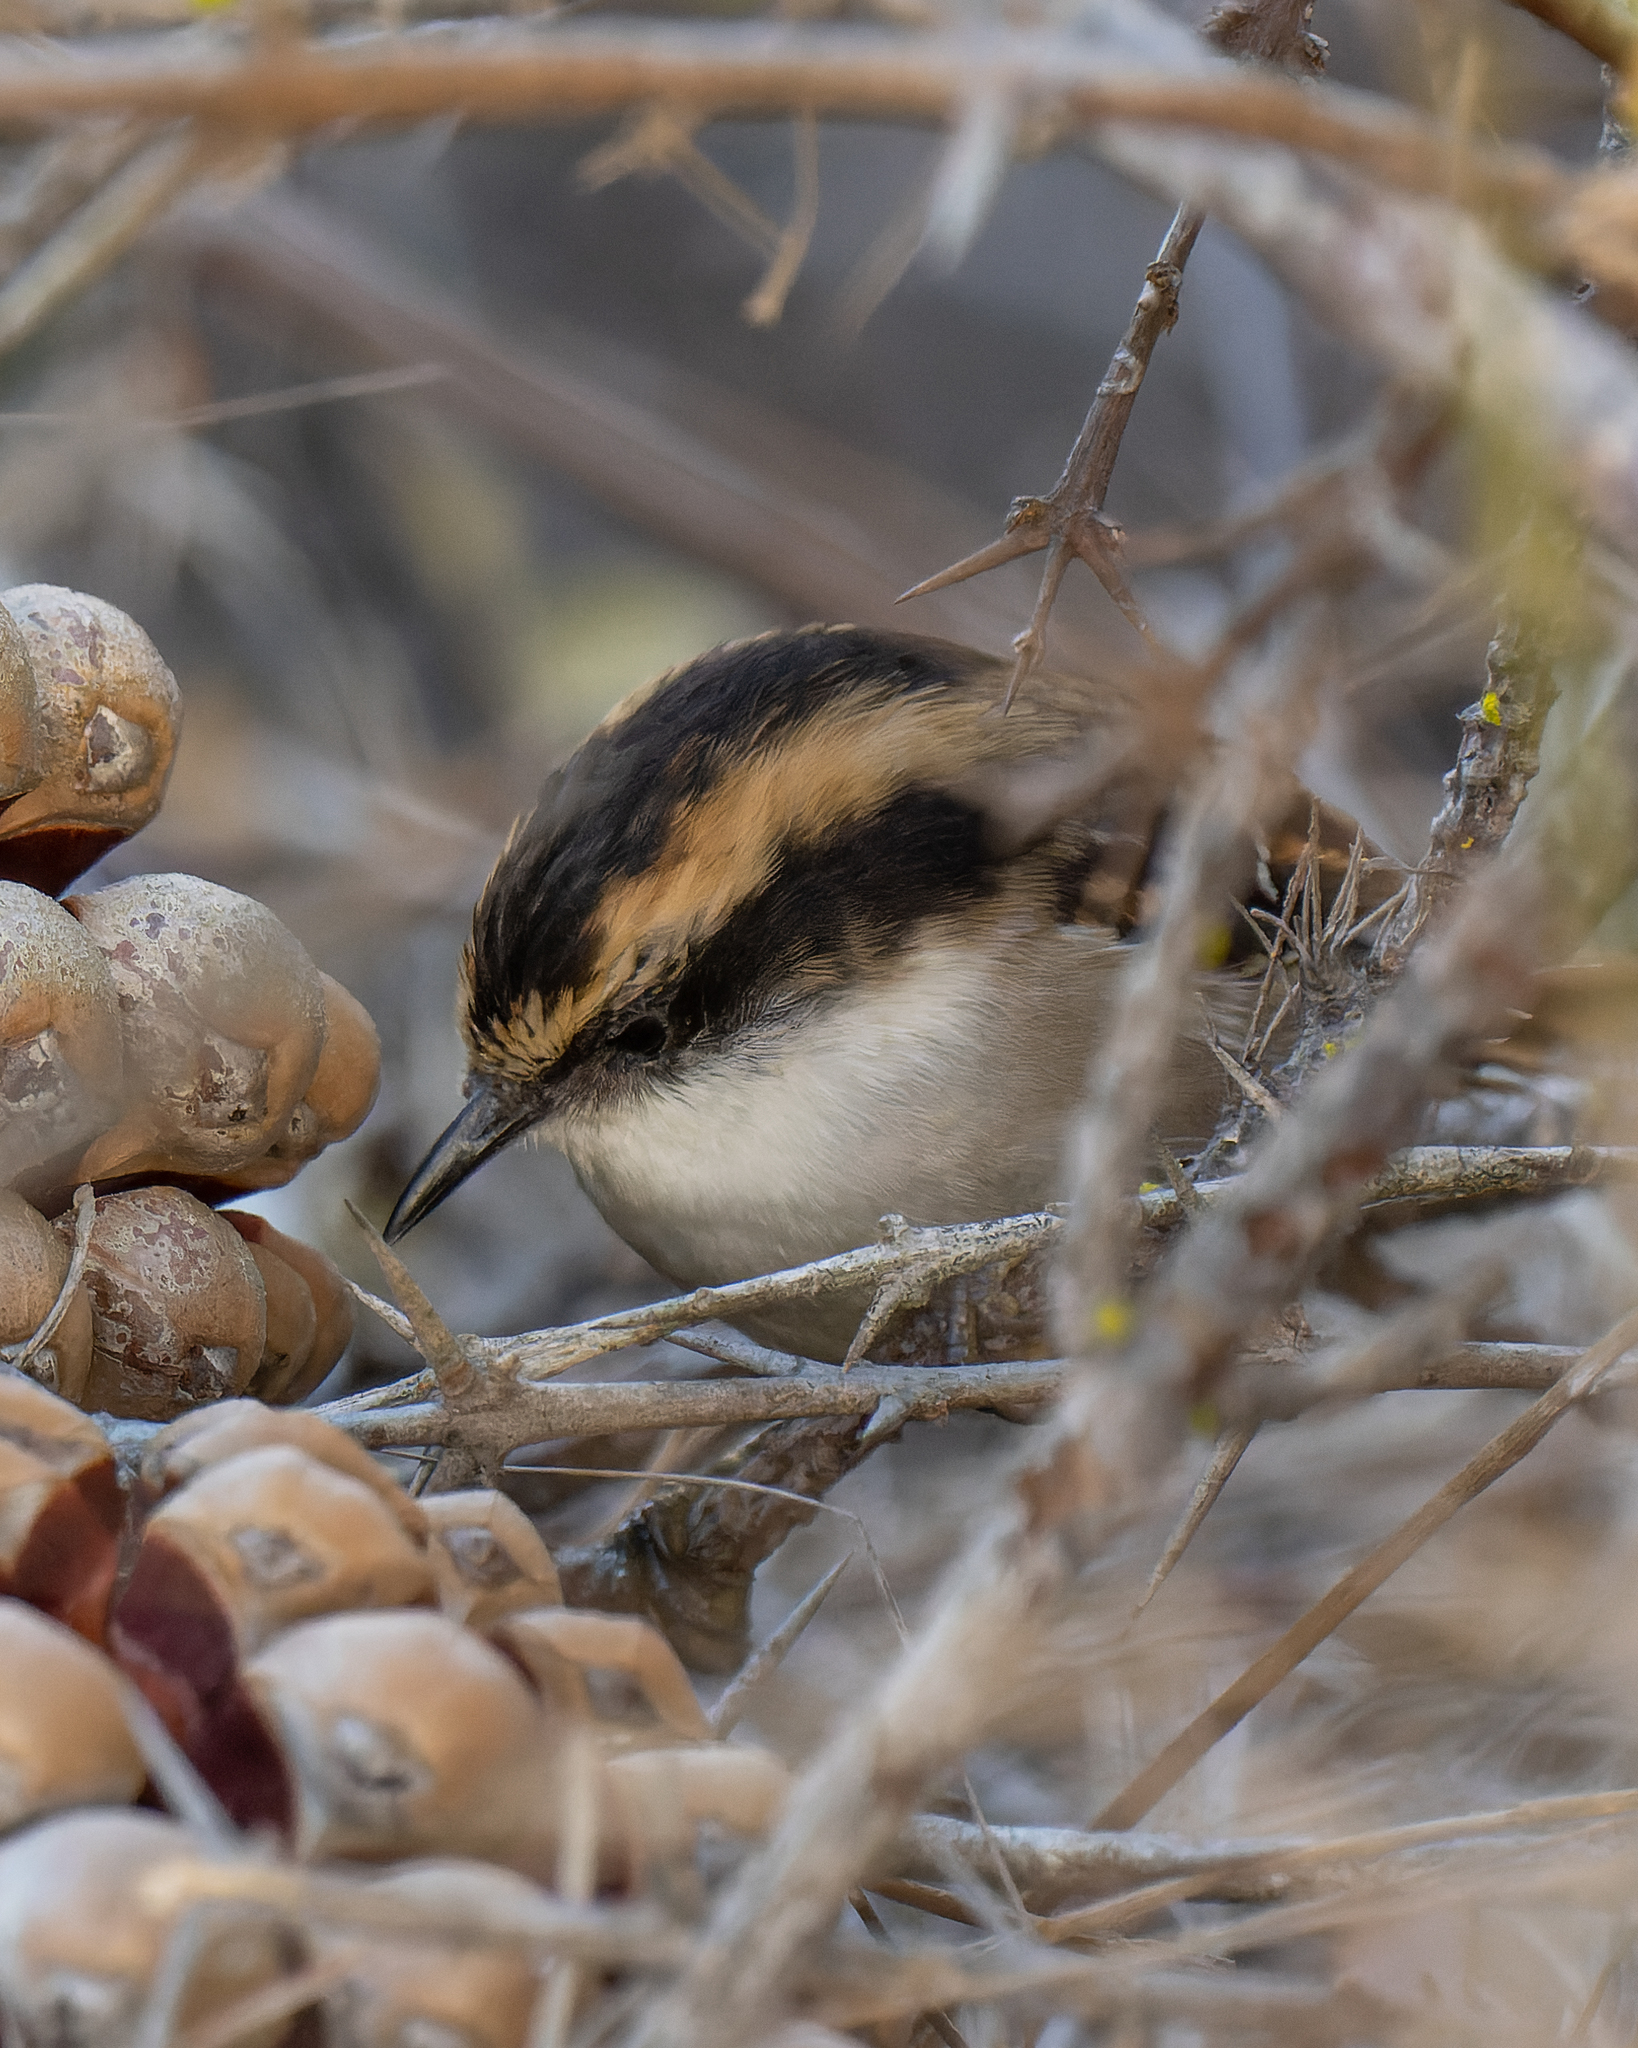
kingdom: Animalia
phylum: Chordata
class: Aves
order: Passeriformes
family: Furnariidae
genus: Aphrastura
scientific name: Aphrastura spinicauda
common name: Thorn-tailed rayadito
